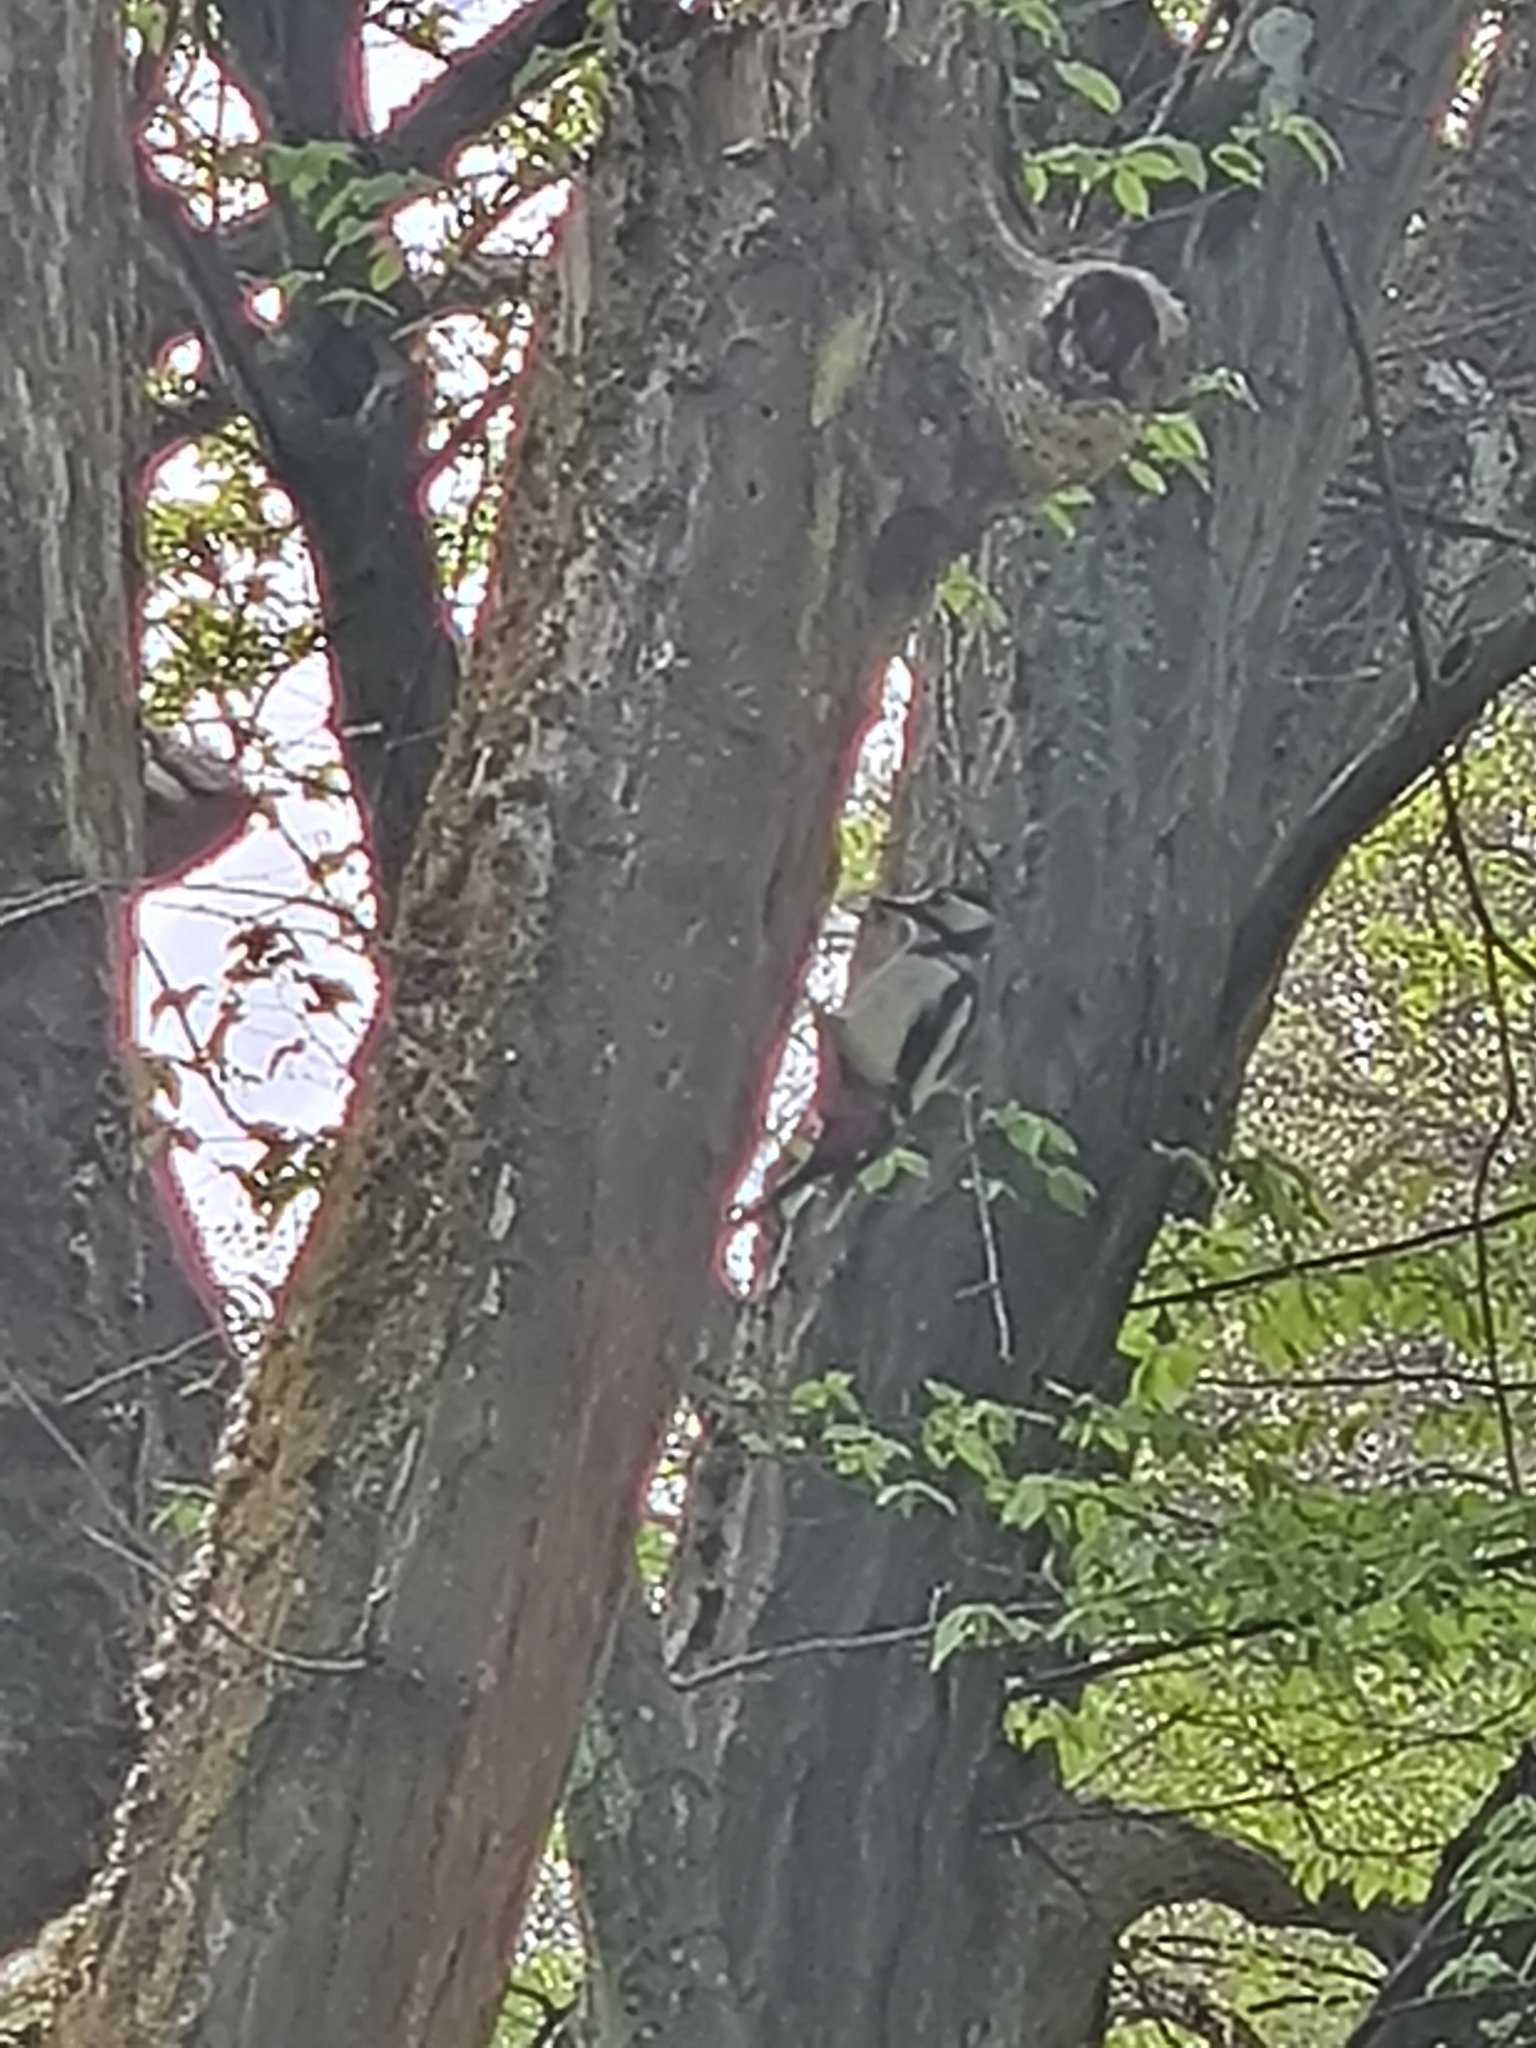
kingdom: Animalia
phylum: Chordata
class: Aves
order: Piciformes
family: Picidae
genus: Dendrocopos
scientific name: Dendrocopos major
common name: Great spotted woodpecker
